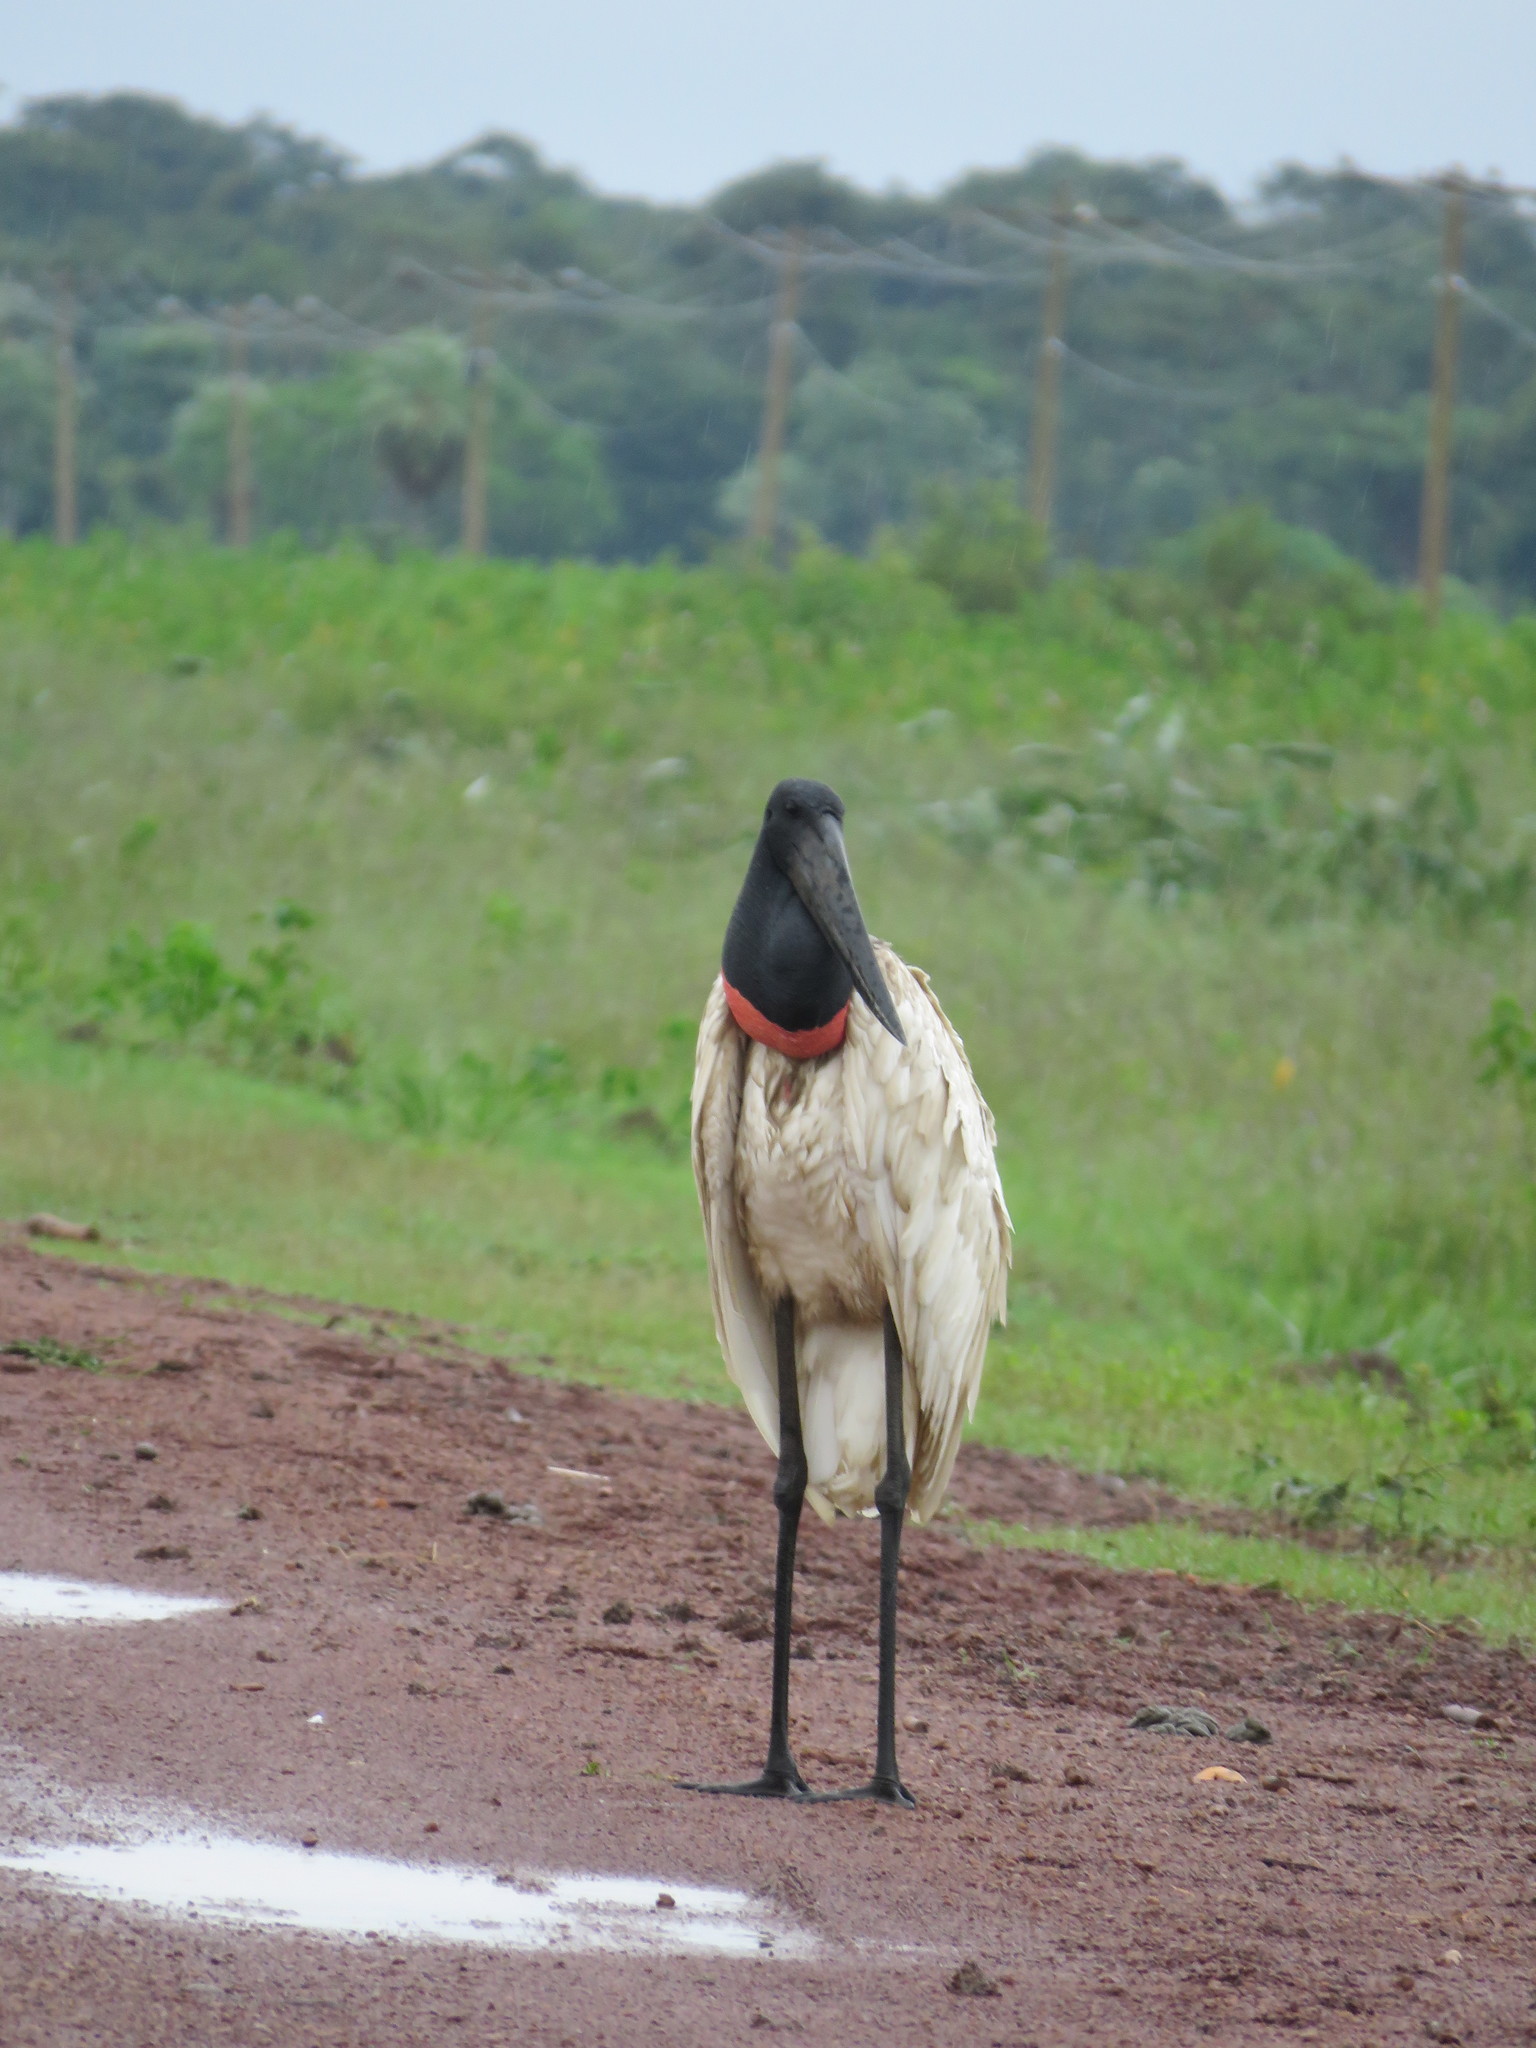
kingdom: Animalia
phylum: Chordata
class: Aves
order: Ciconiiformes
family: Ciconiidae
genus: Jabiru
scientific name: Jabiru mycteria
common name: Jabiru
